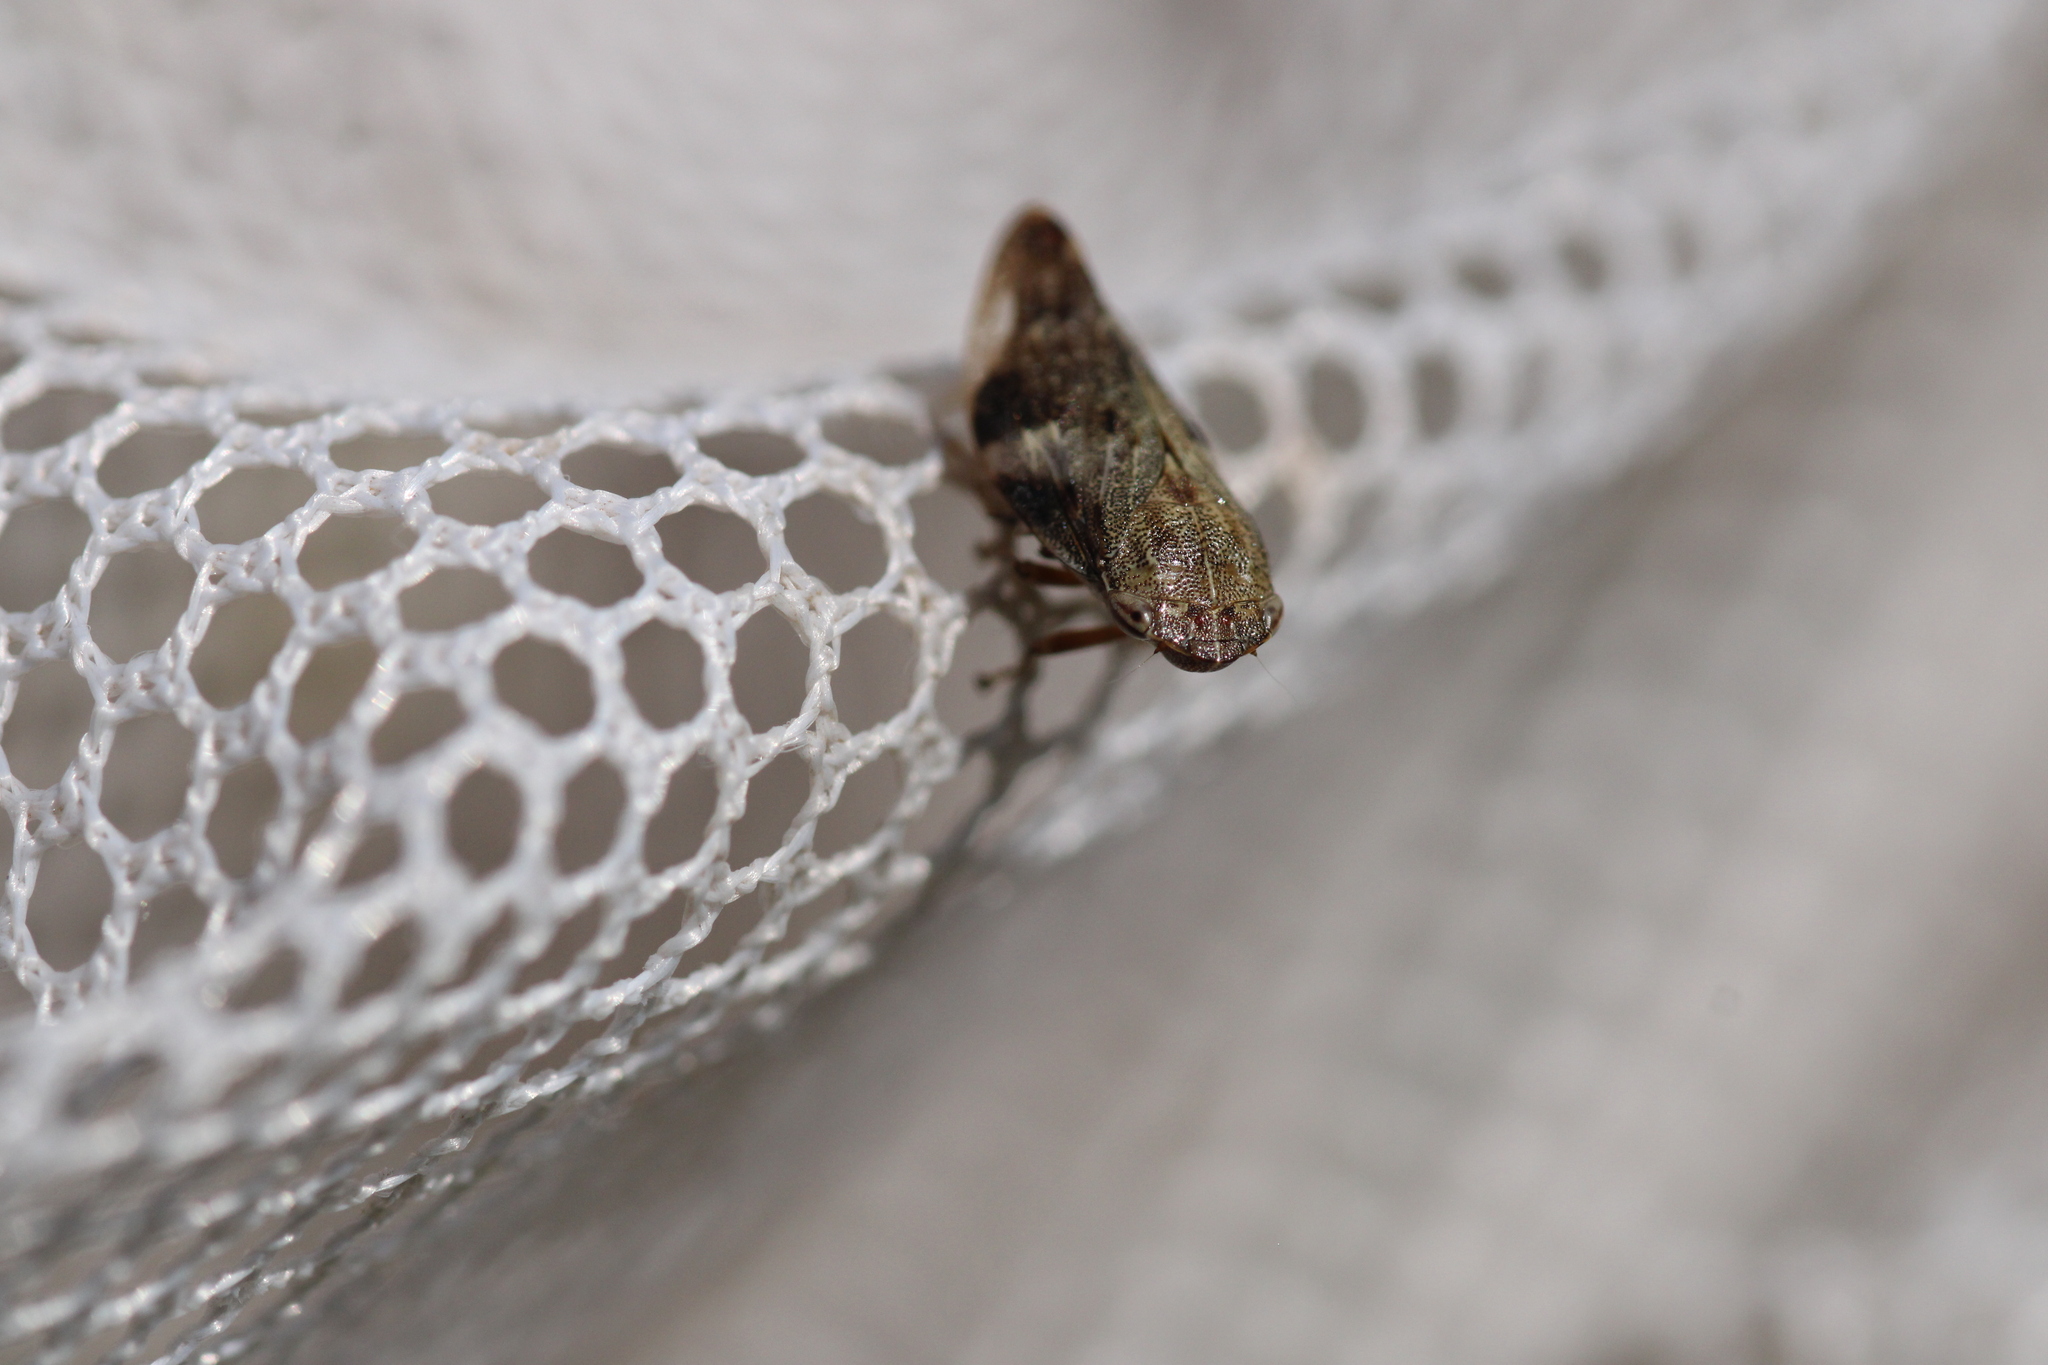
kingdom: Animalia
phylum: Arthropoda
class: Insecta
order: Hemiptera
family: Aphrophoridae
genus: Aphrophora
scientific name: Aphrophora alni
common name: European alder spittlebug
